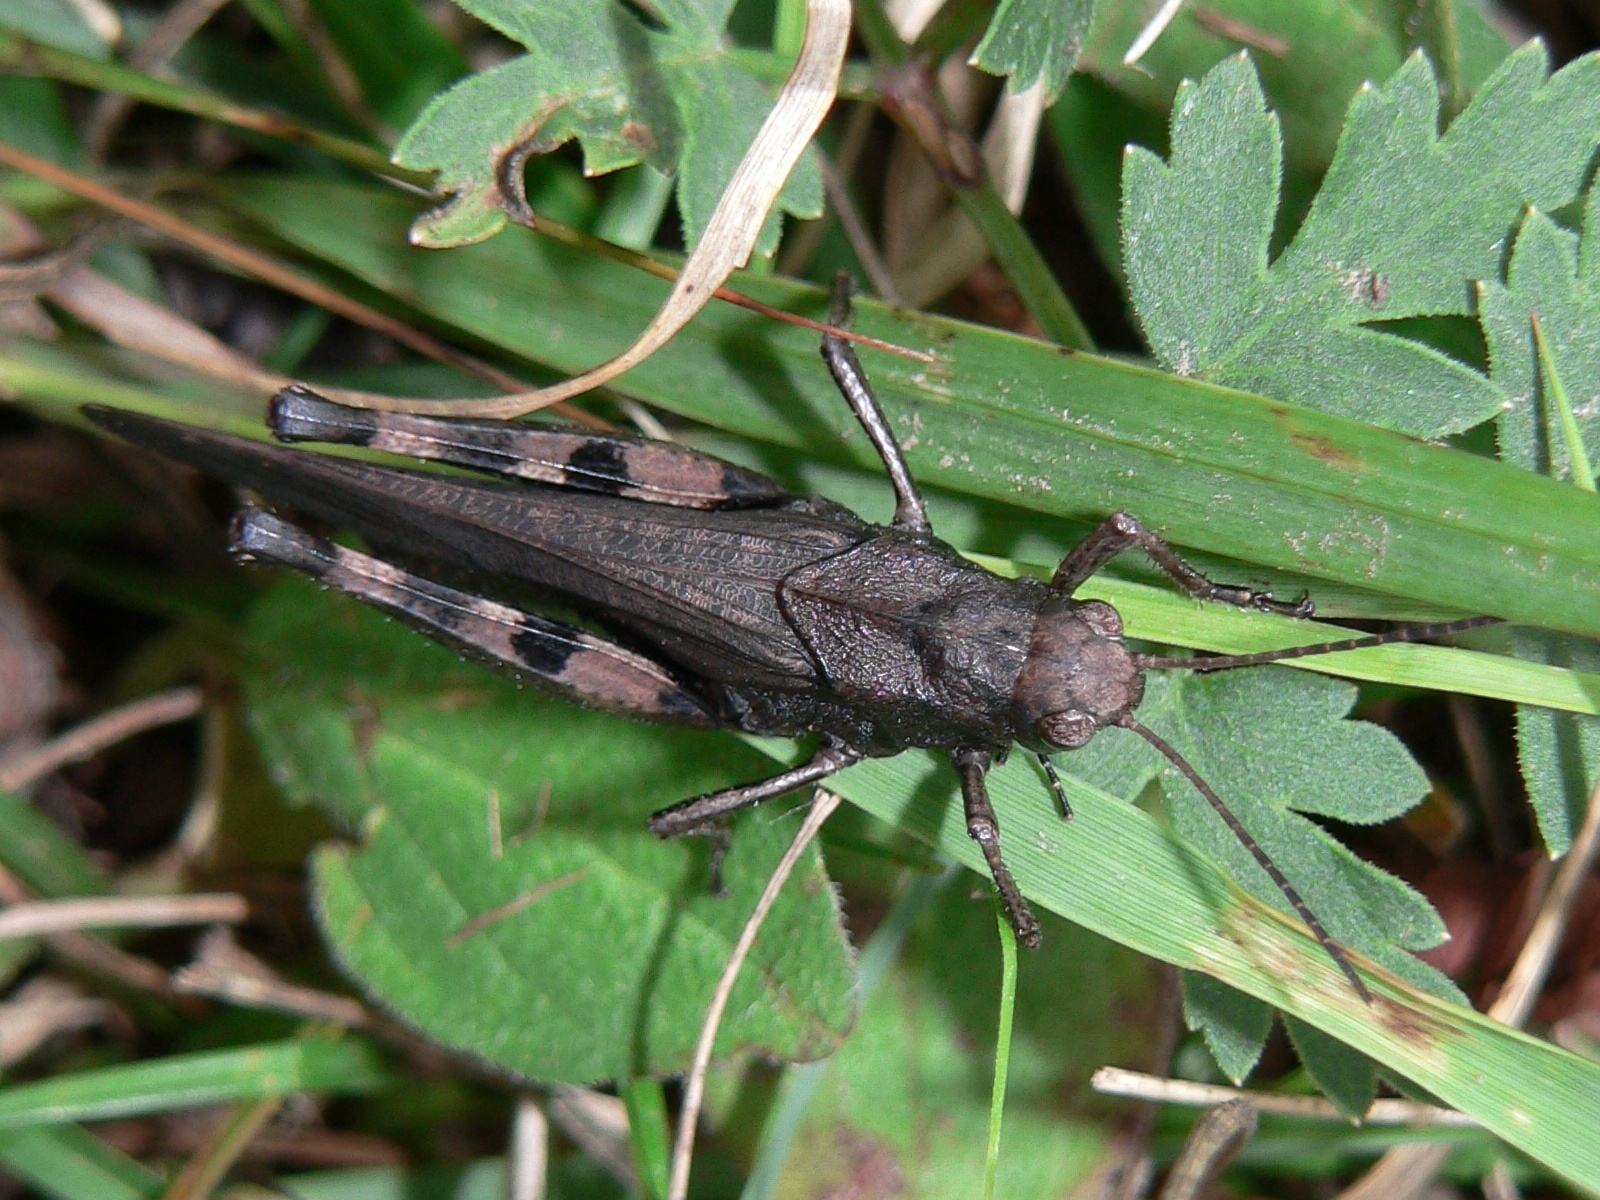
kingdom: Animalia
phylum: Arthropoda
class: Insecta
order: Orthoptera
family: Acrididae
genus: Psophus
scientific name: Psophus stridulus
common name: Rattle grasshopper
